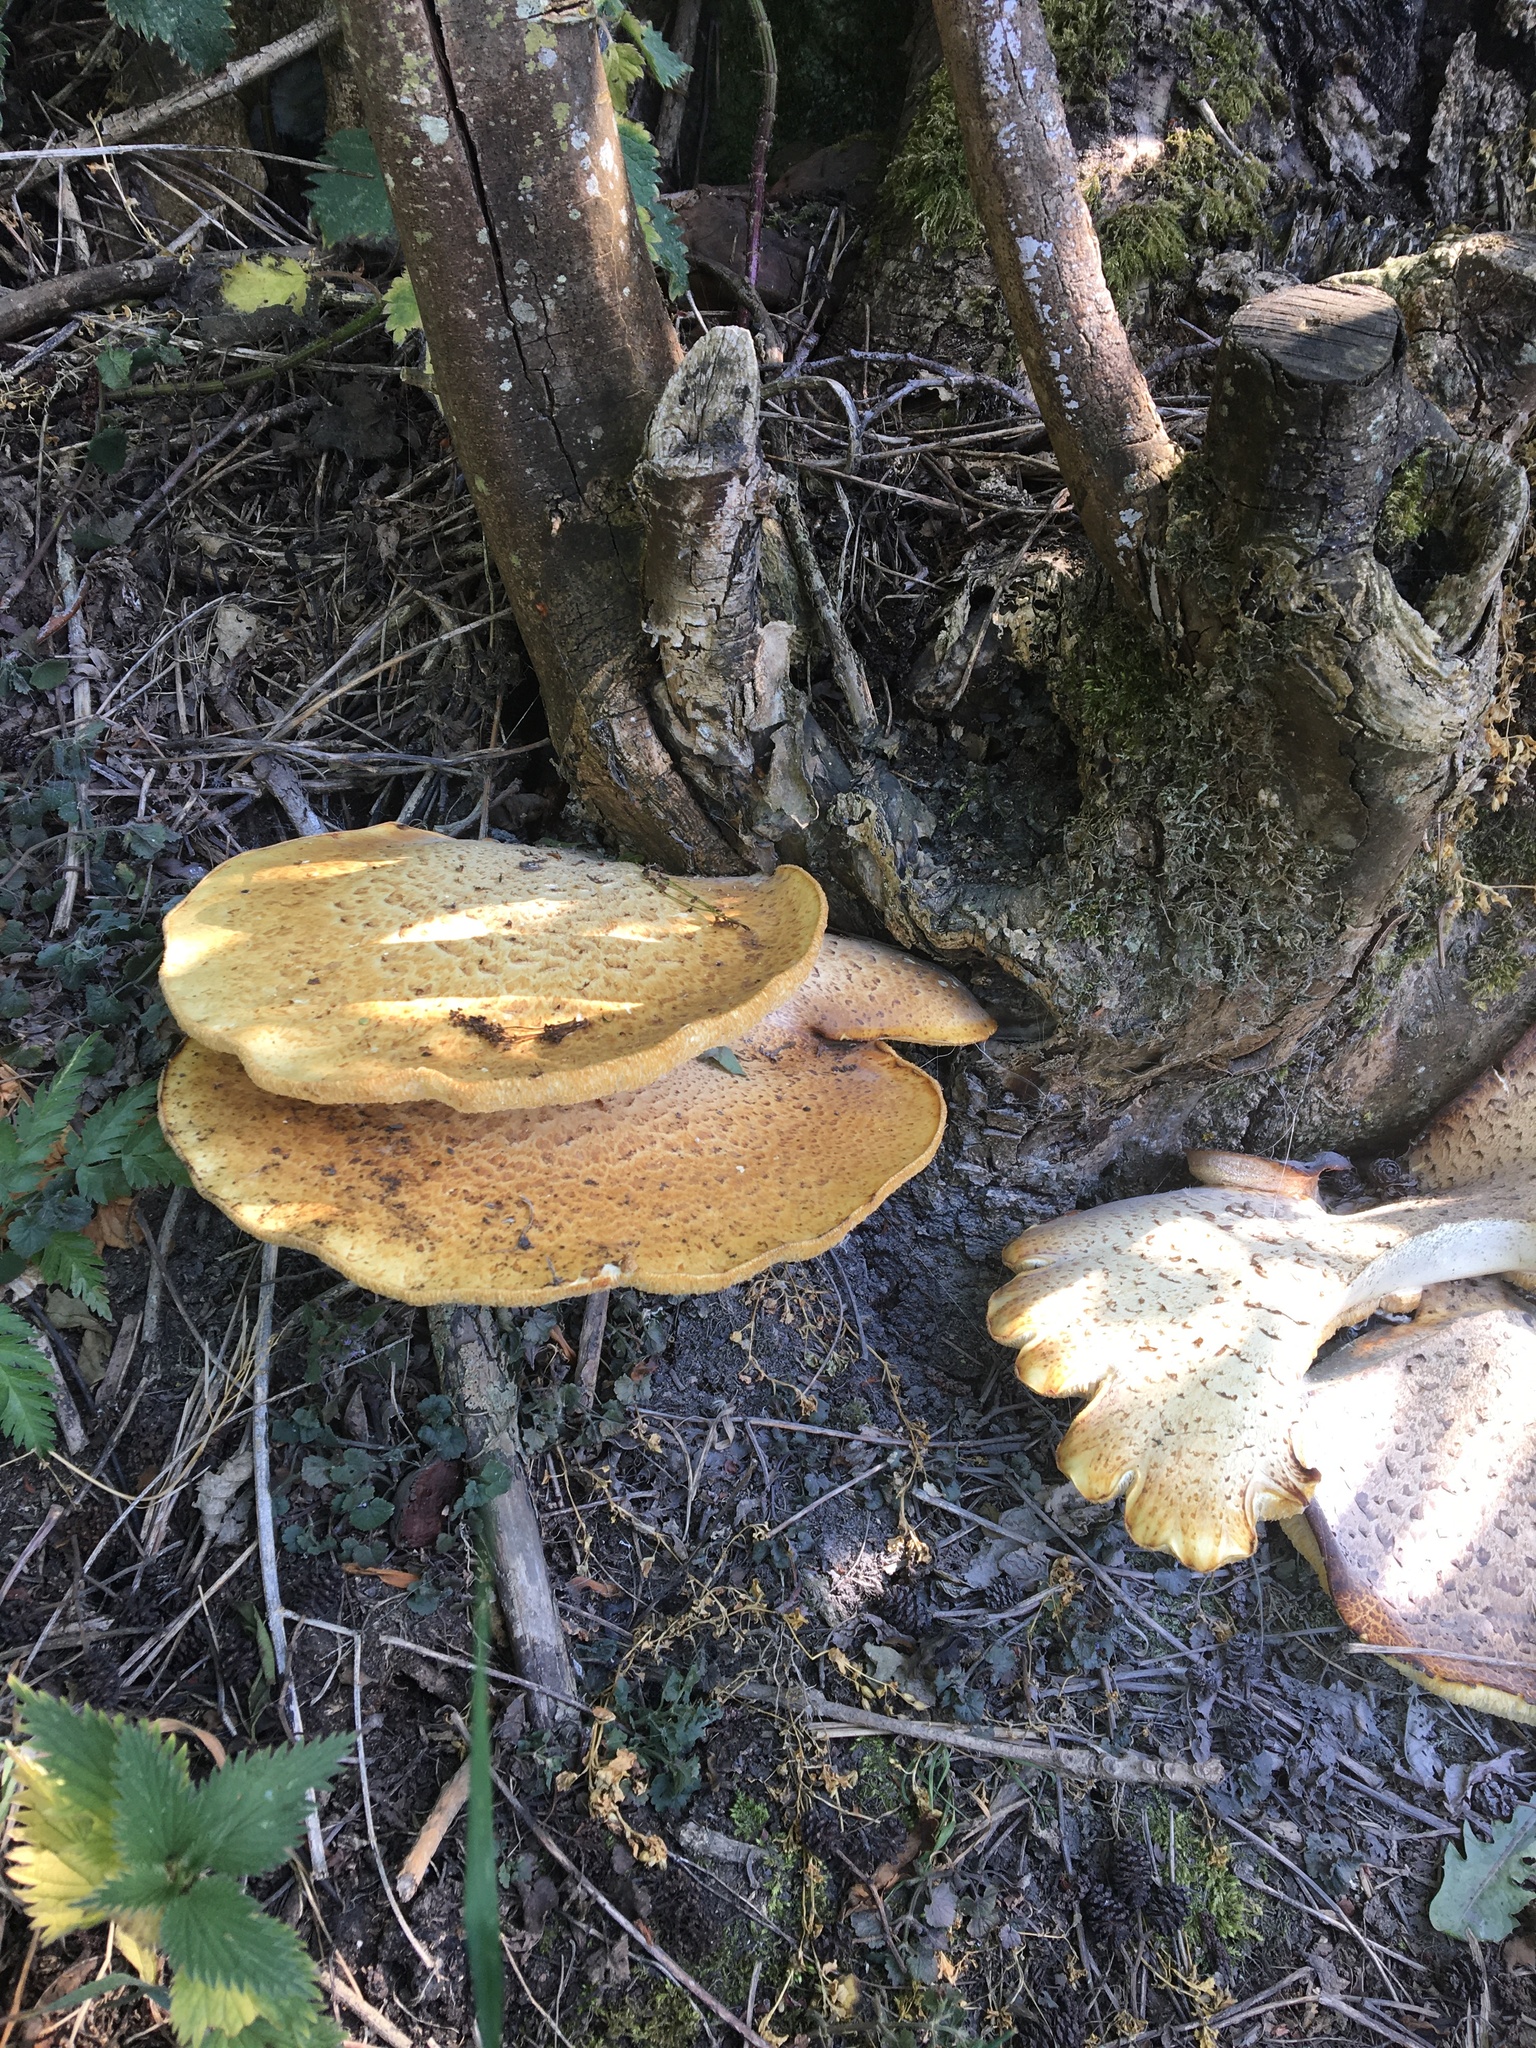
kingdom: Fungi
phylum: Basidiomycota
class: Agaricomycetes
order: Polyporales
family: Polyporaceae
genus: Cerioporus
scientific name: Cerioporus squamosus
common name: Dryad's saddle
